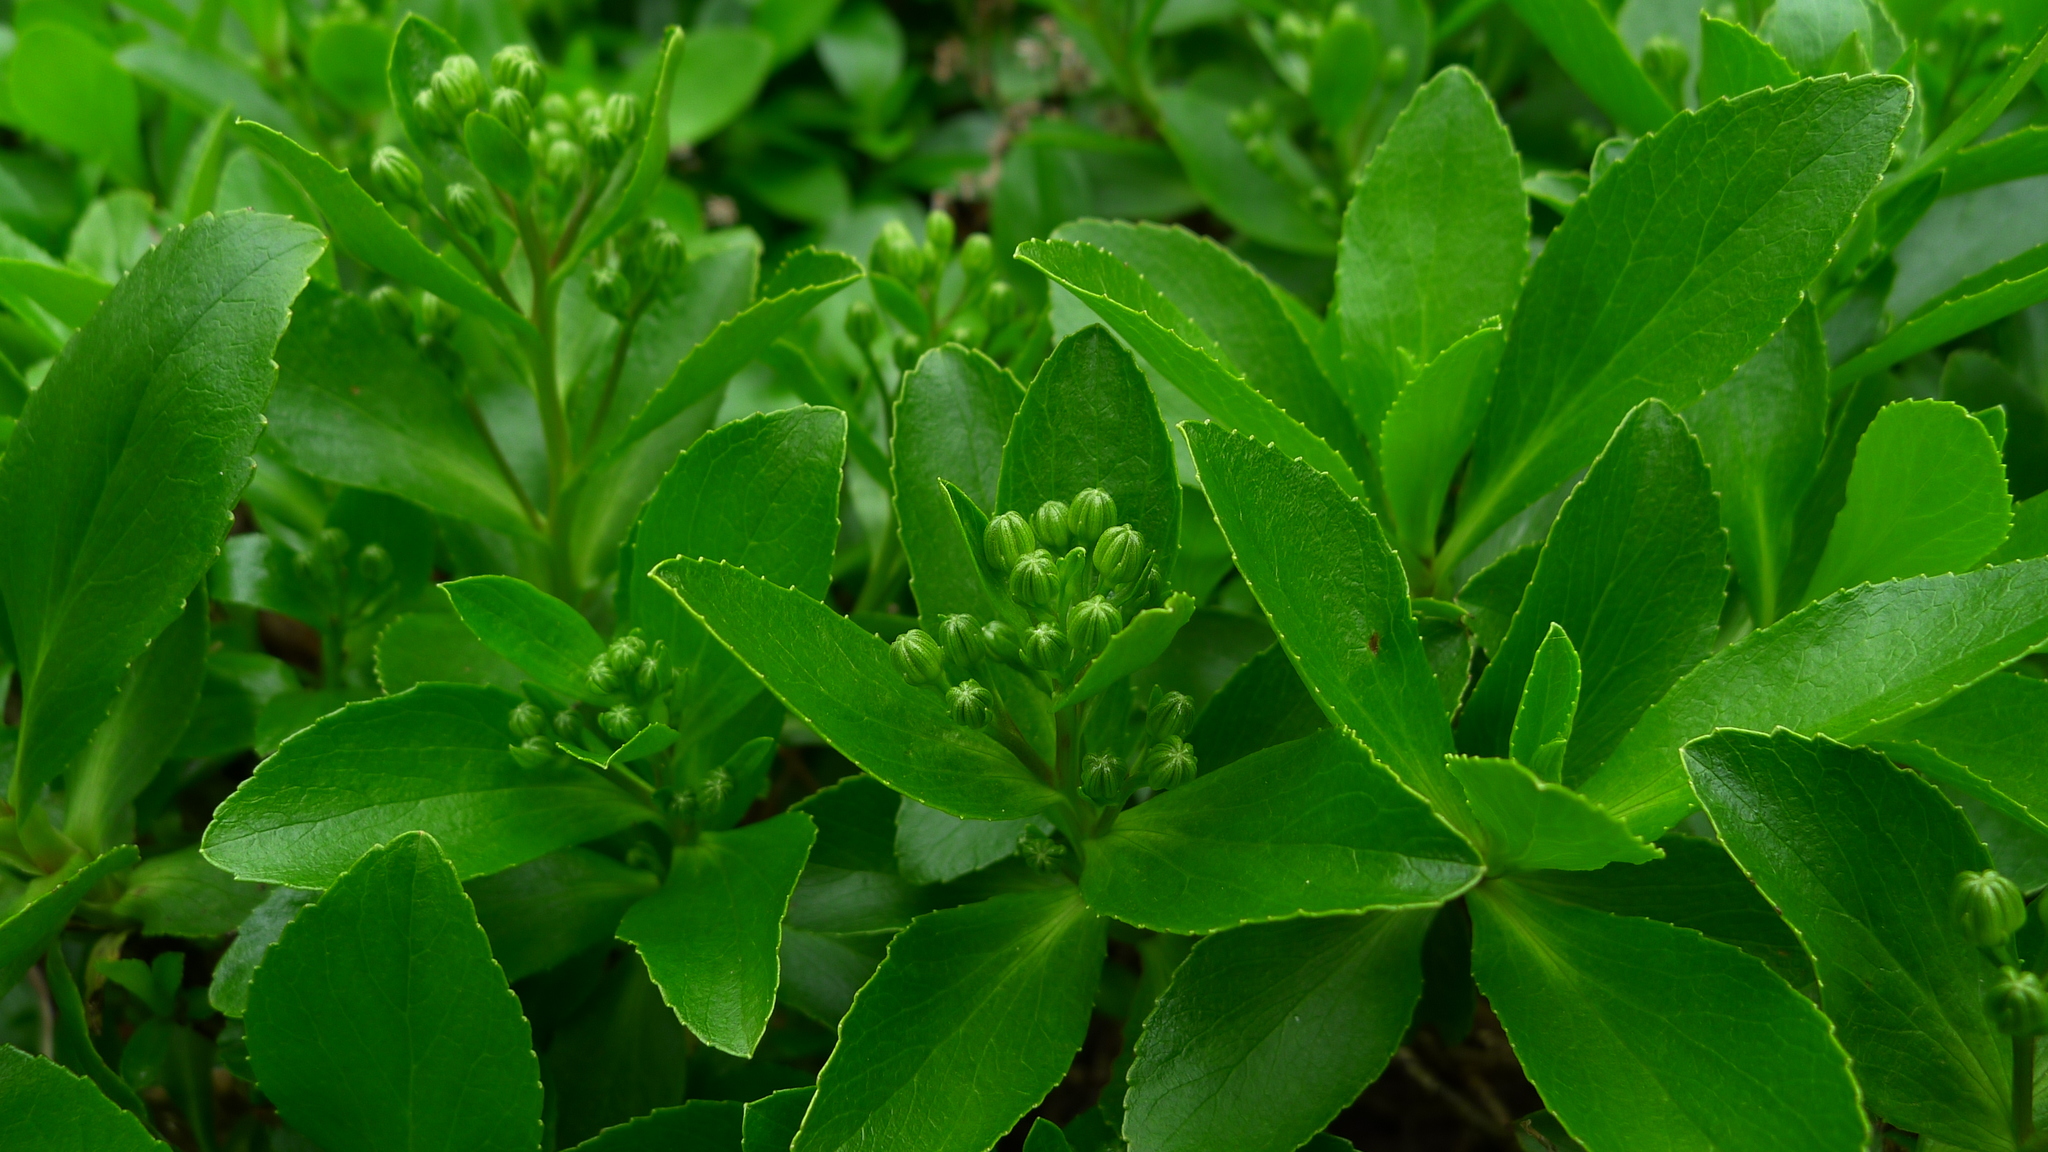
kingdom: Plantae
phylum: Tracheophyta
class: Magnoliopsida
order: Asterales
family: Asteraceae
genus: Traversia
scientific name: Traversia baccharoides
